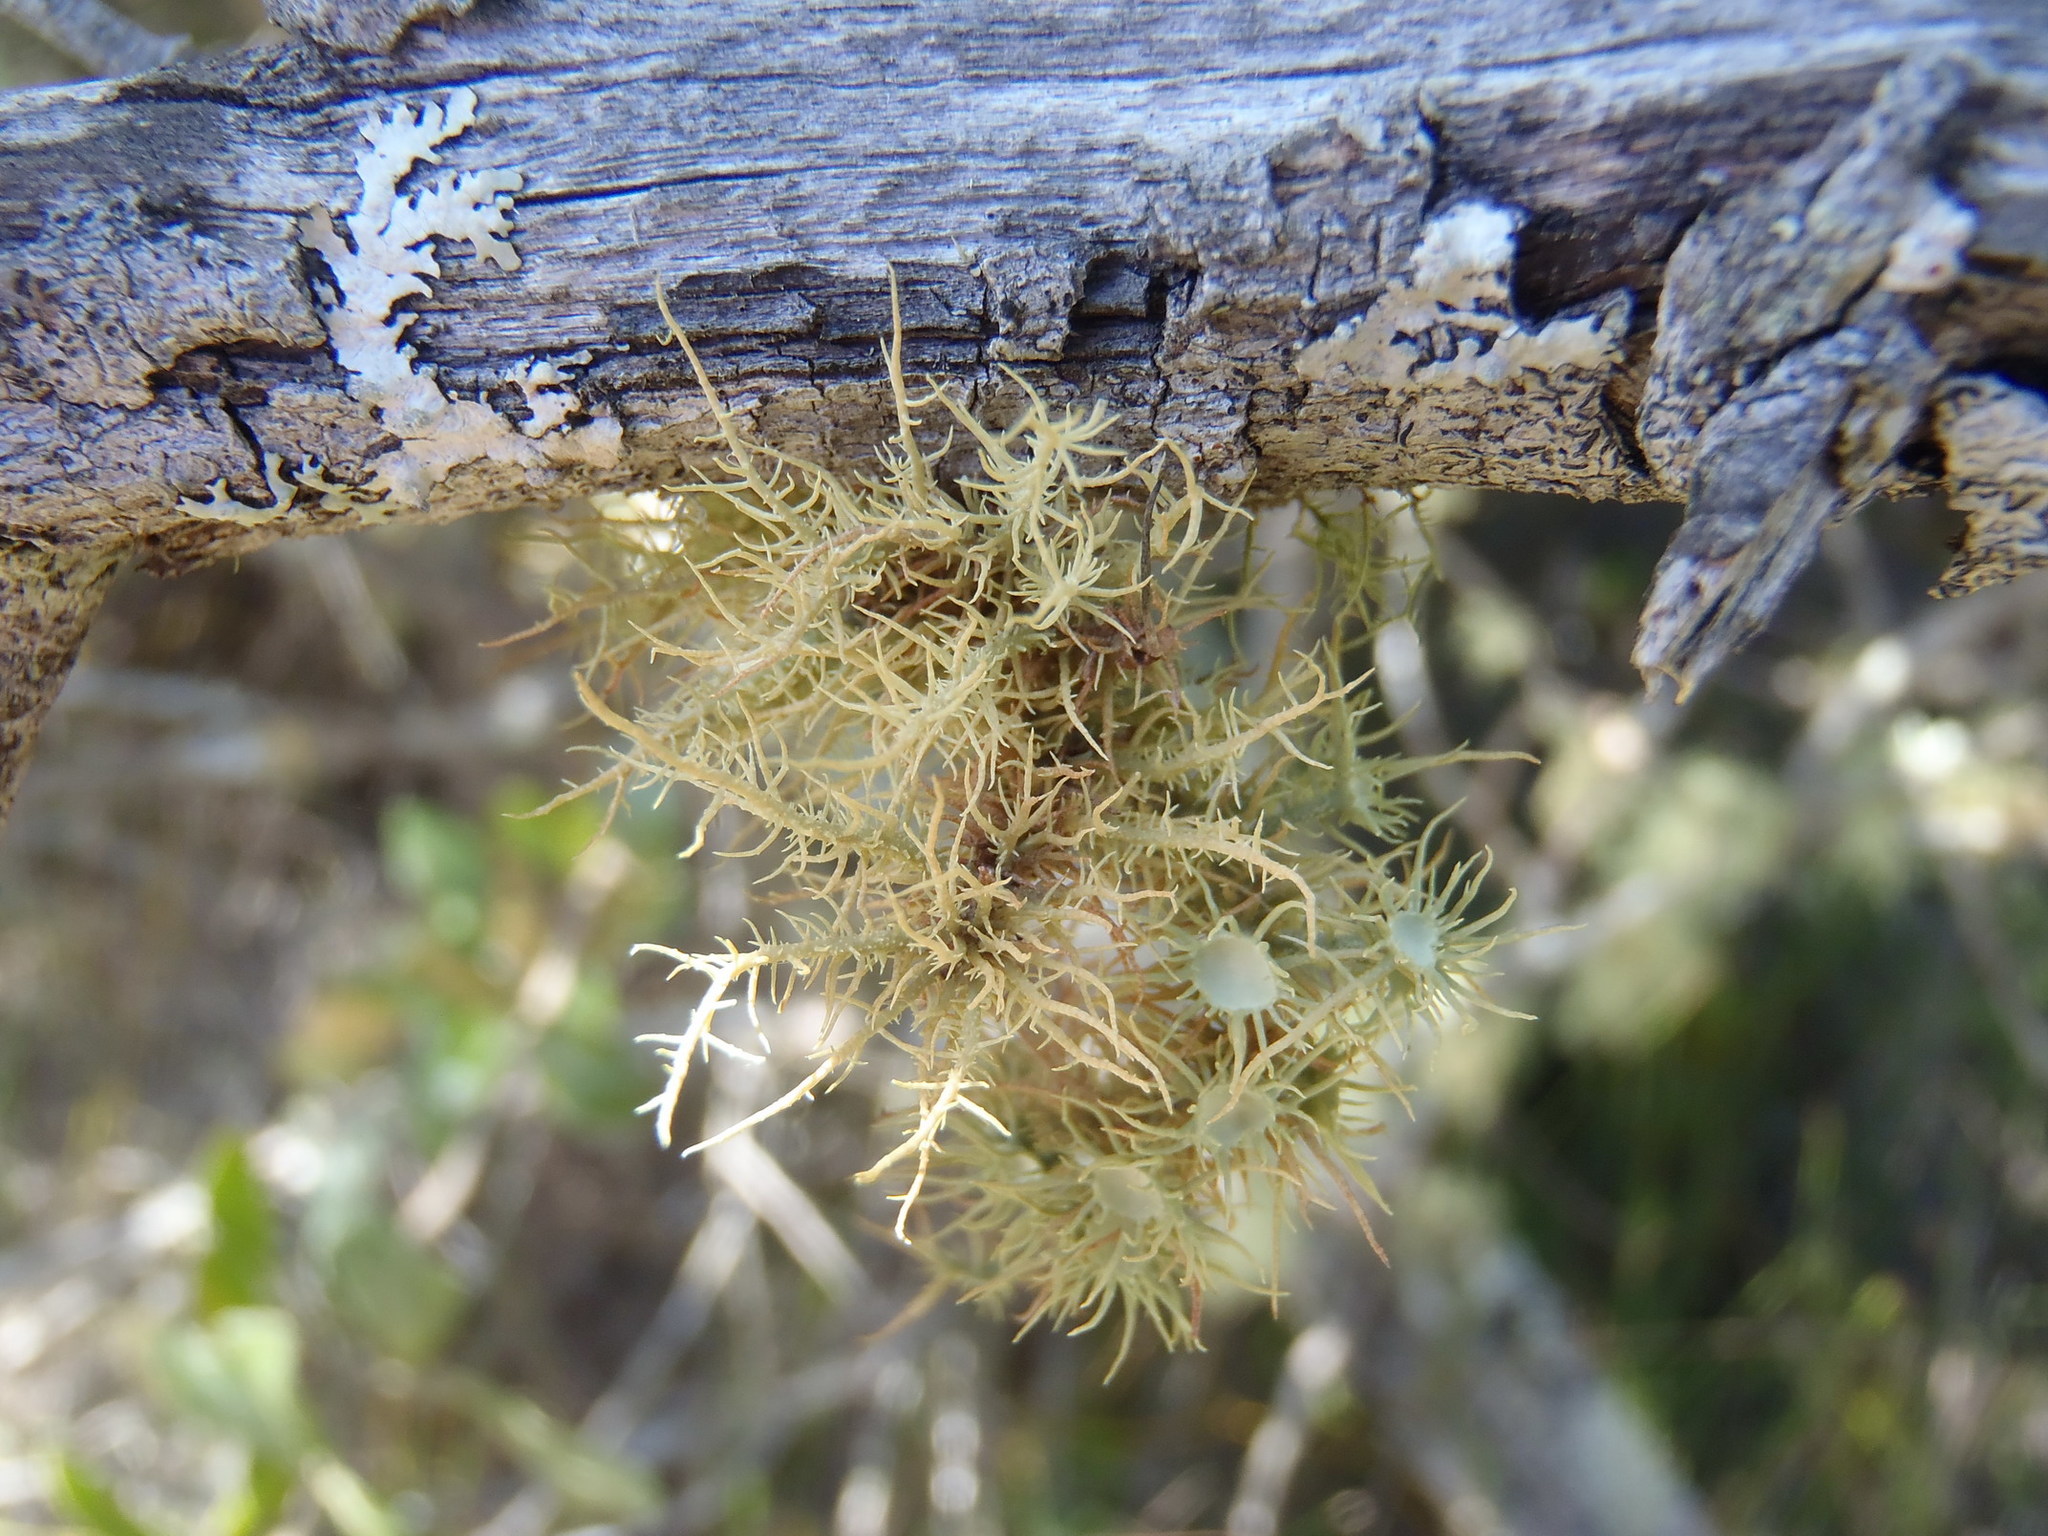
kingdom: Fungi
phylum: Ascomycota
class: Lecanoromycetes
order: Lecanorales
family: Parmeliaceae
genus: Usnea
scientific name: Usnea florida
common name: Witches' whiskers lichen
